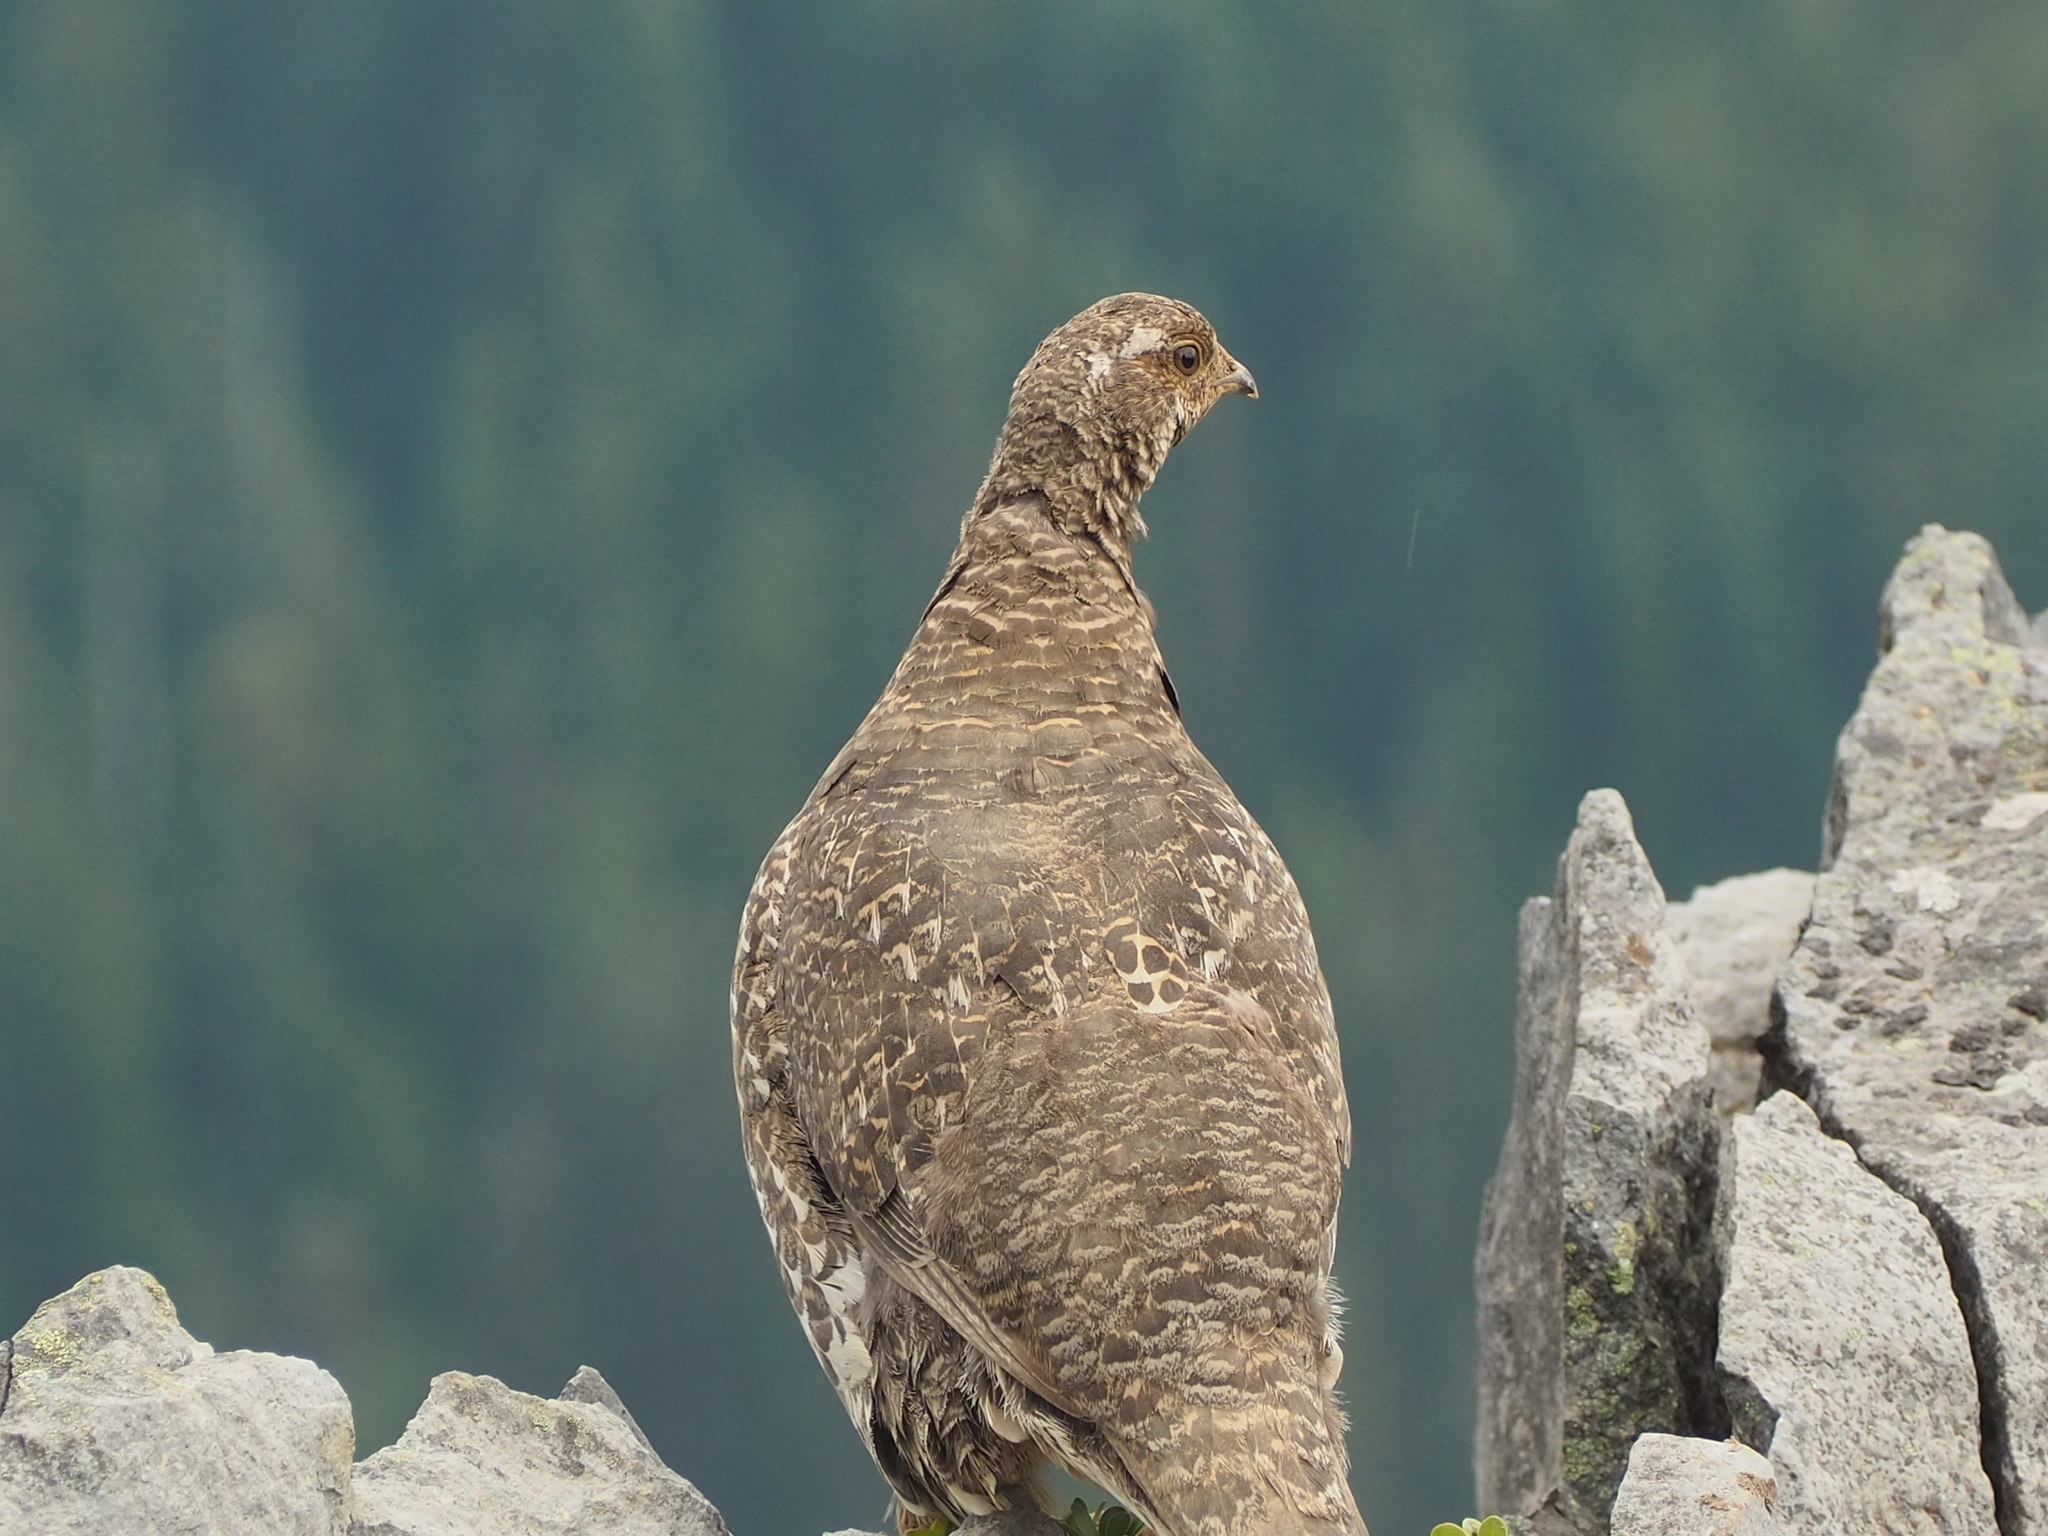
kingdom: Animalia
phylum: Chordata
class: Aves
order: Galliformes
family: Phasianidae
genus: Dendragapus
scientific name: Dendragapus fuliginosus
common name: Sooty grouse
